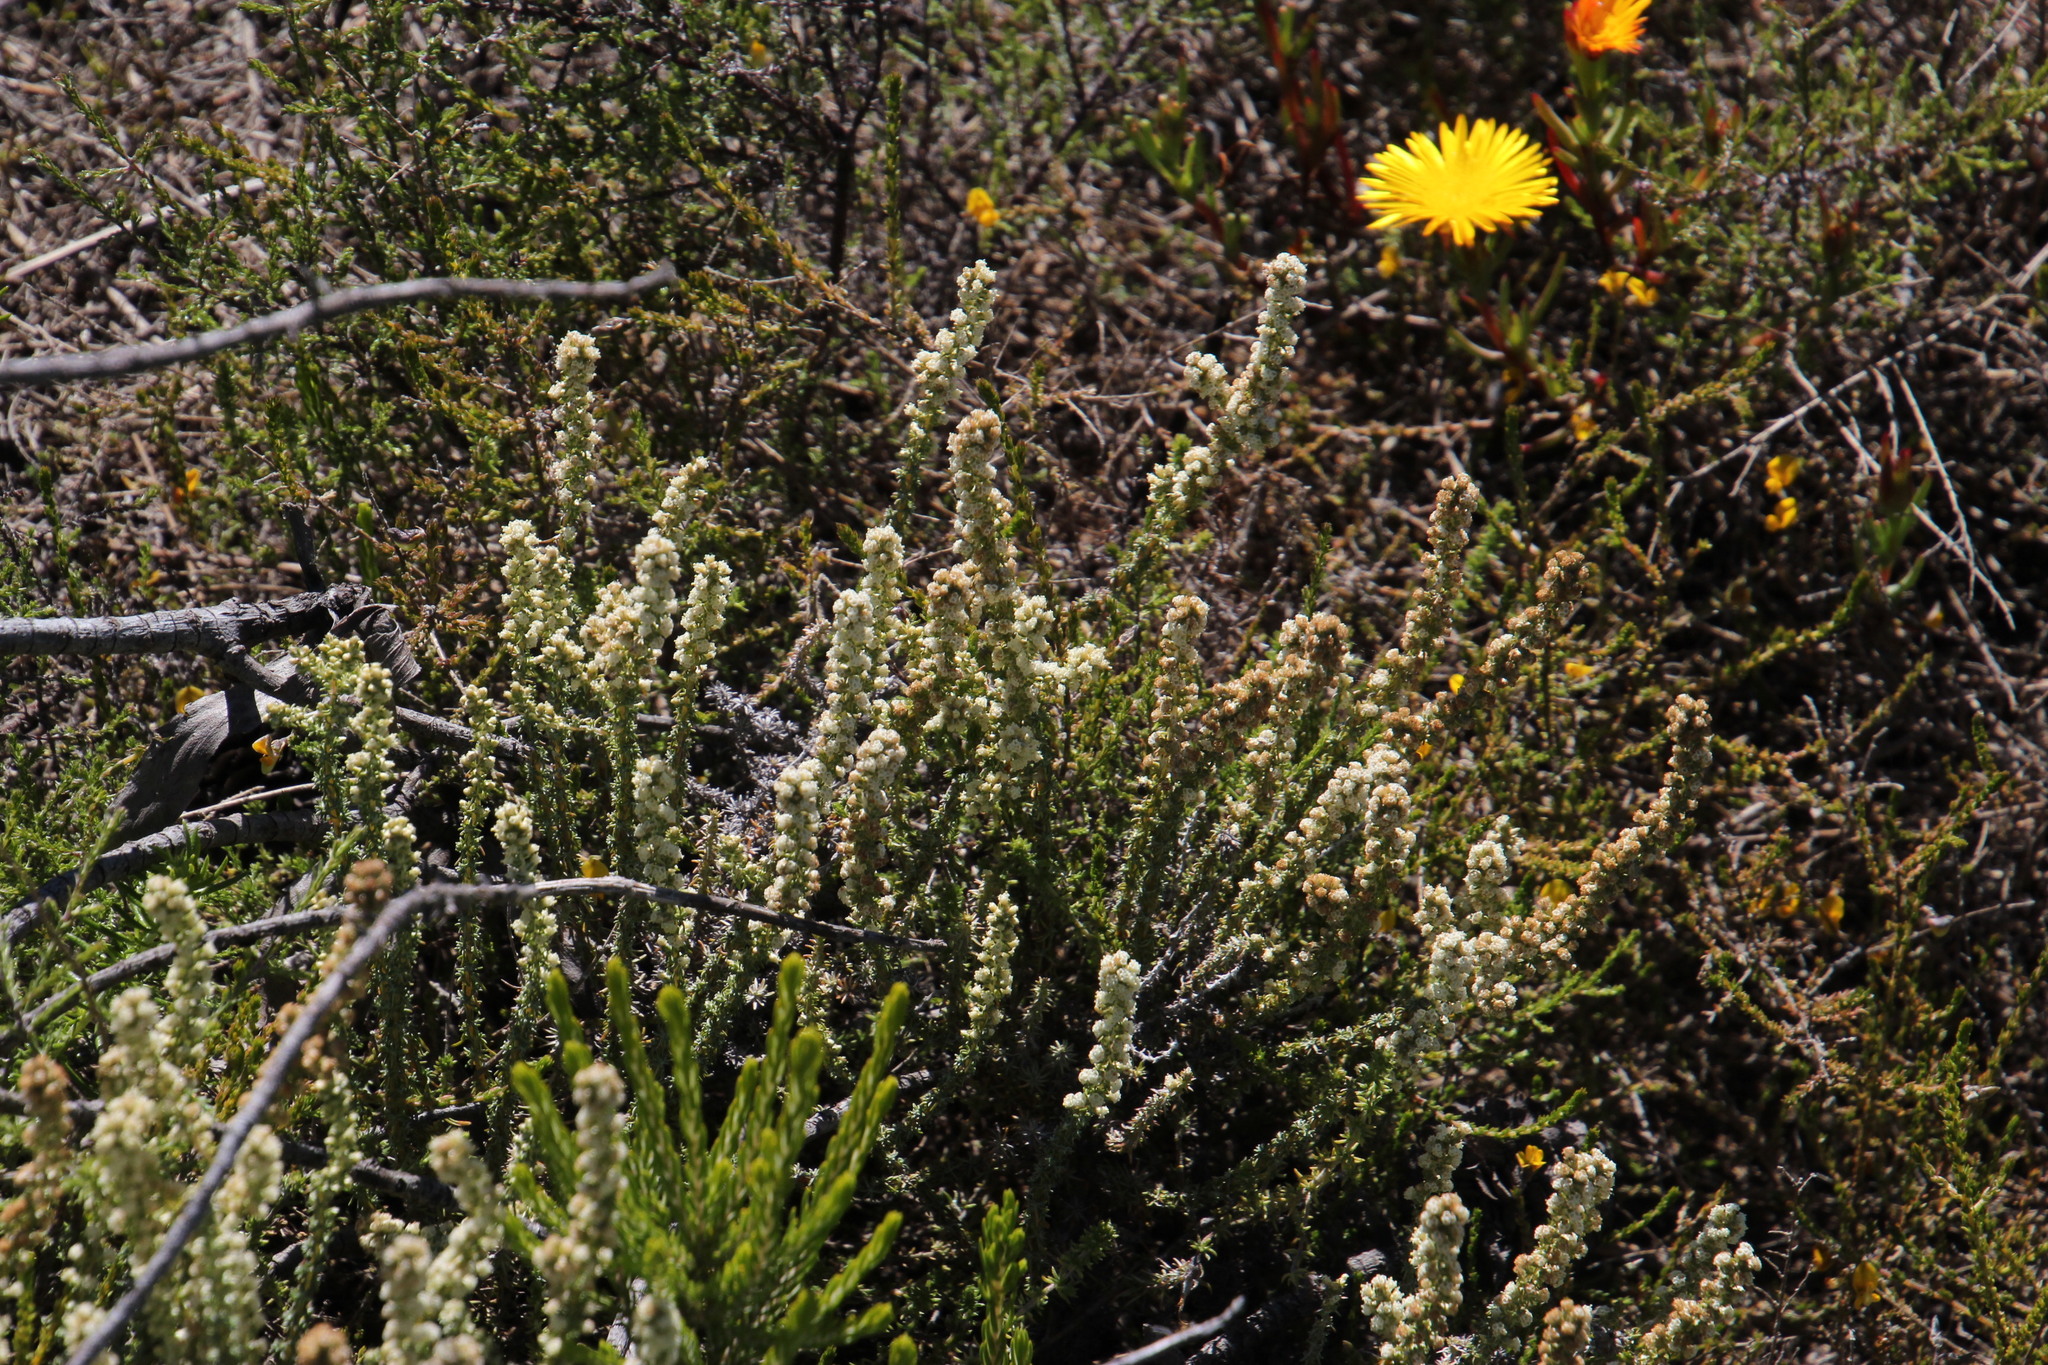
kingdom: Plantae
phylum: Tracheophyta
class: Magnoliopsida
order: Asterales
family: Asteraceae
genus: Ifloga
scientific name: Ifloga ambigua
